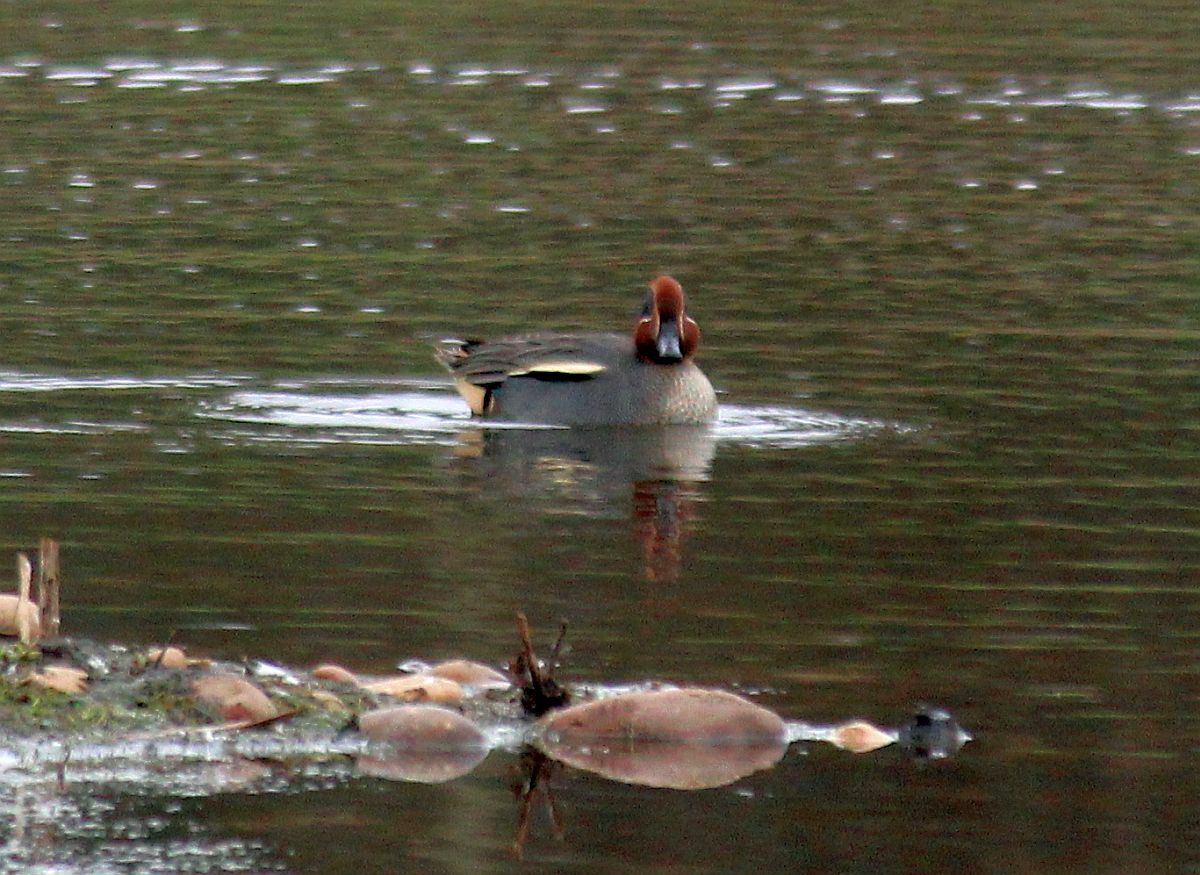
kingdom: Animalia
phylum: Chordata
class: Aves
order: Anseriformes
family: Anatidae
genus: Anas
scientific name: Anas crecca
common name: Eurasian teal
